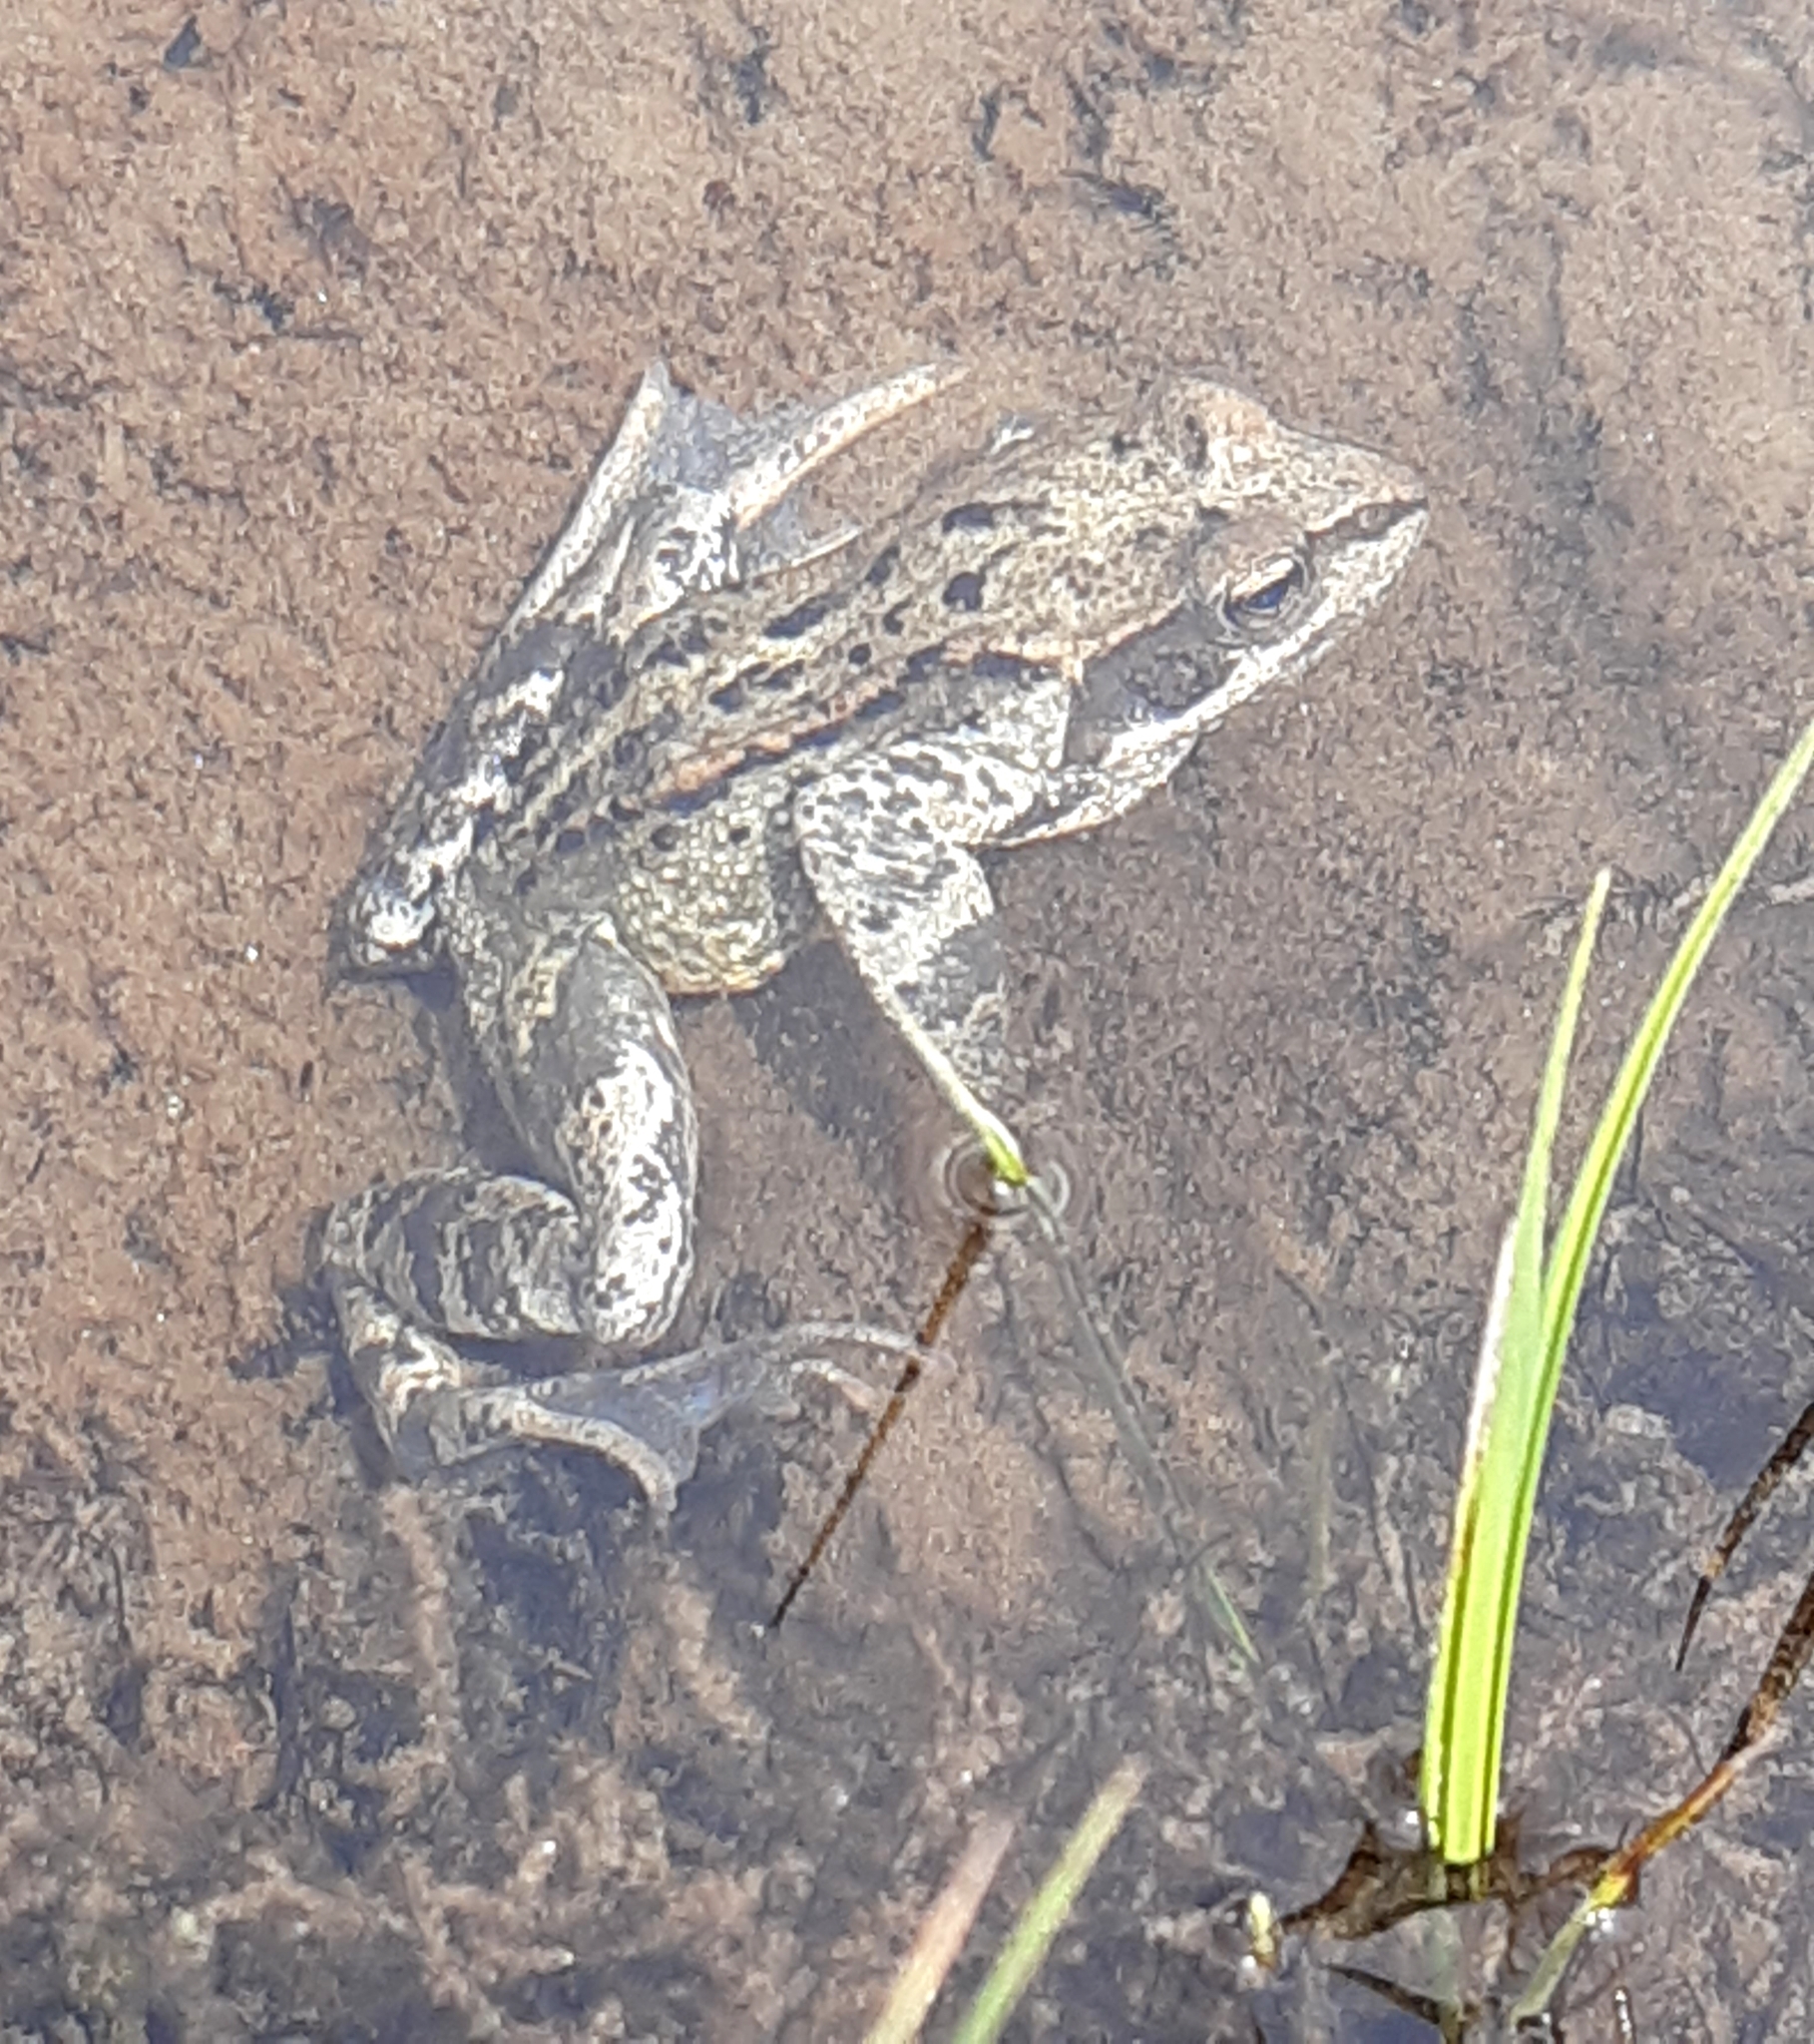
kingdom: Animalia
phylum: Chordata
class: Amphibia
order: Anura
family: Ranidae
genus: Rana
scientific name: Rana temporaria
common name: Common frog
